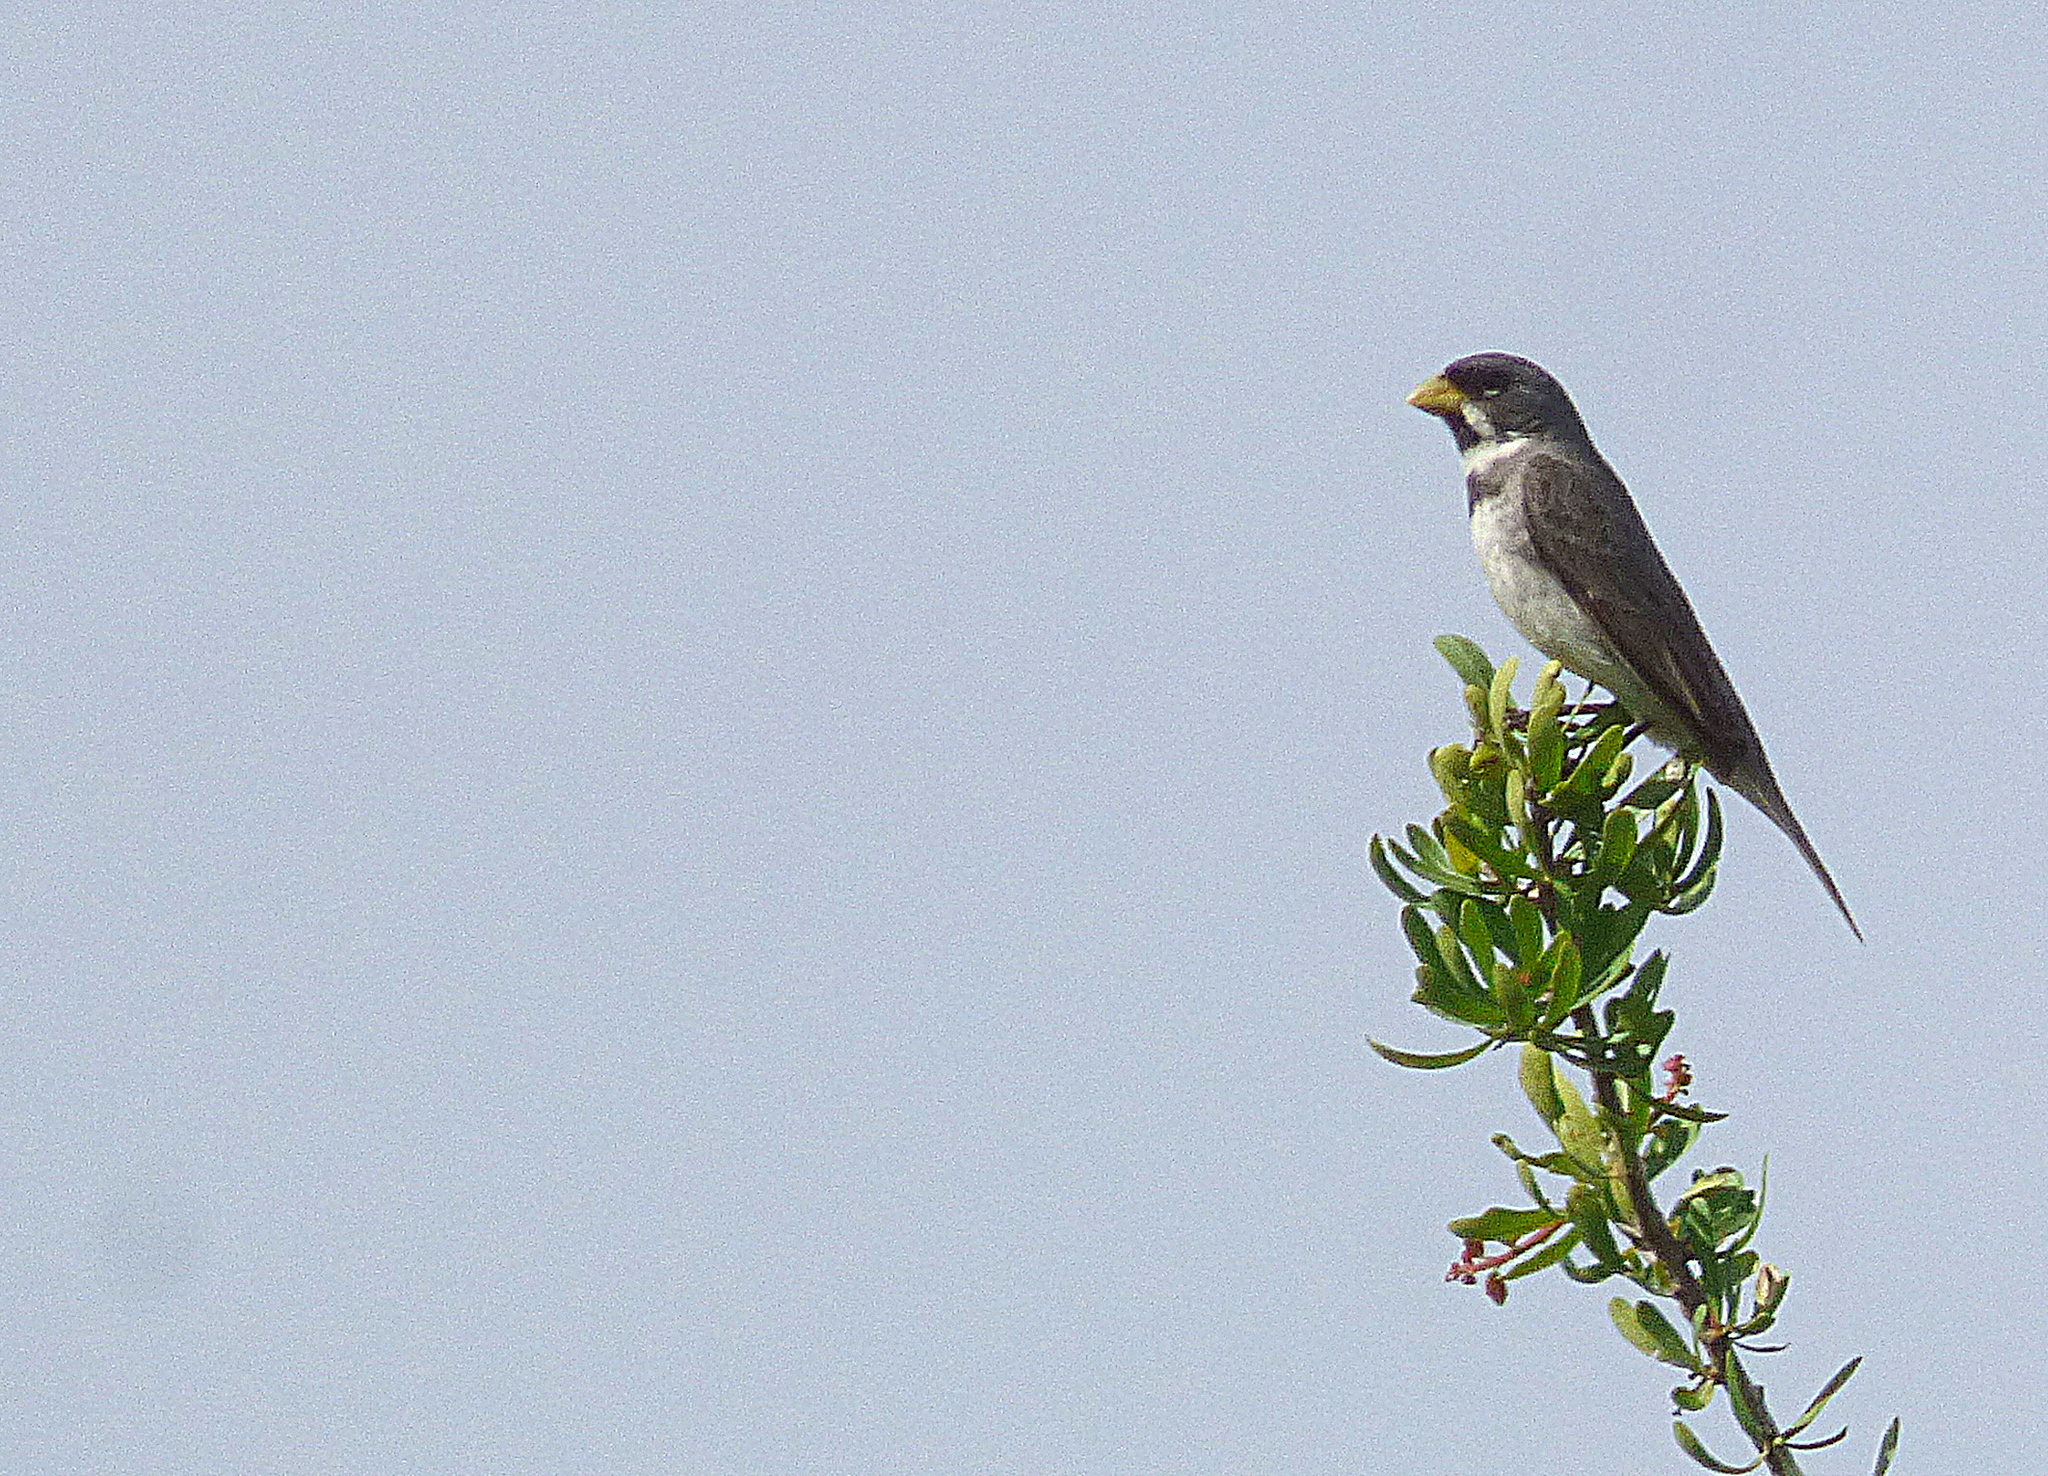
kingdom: Animalia
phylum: Chordata
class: Aves
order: Passeriformes
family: Thraupidae
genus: Sporophila
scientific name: Sporophila caerulescens
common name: Double-collared seedeater
